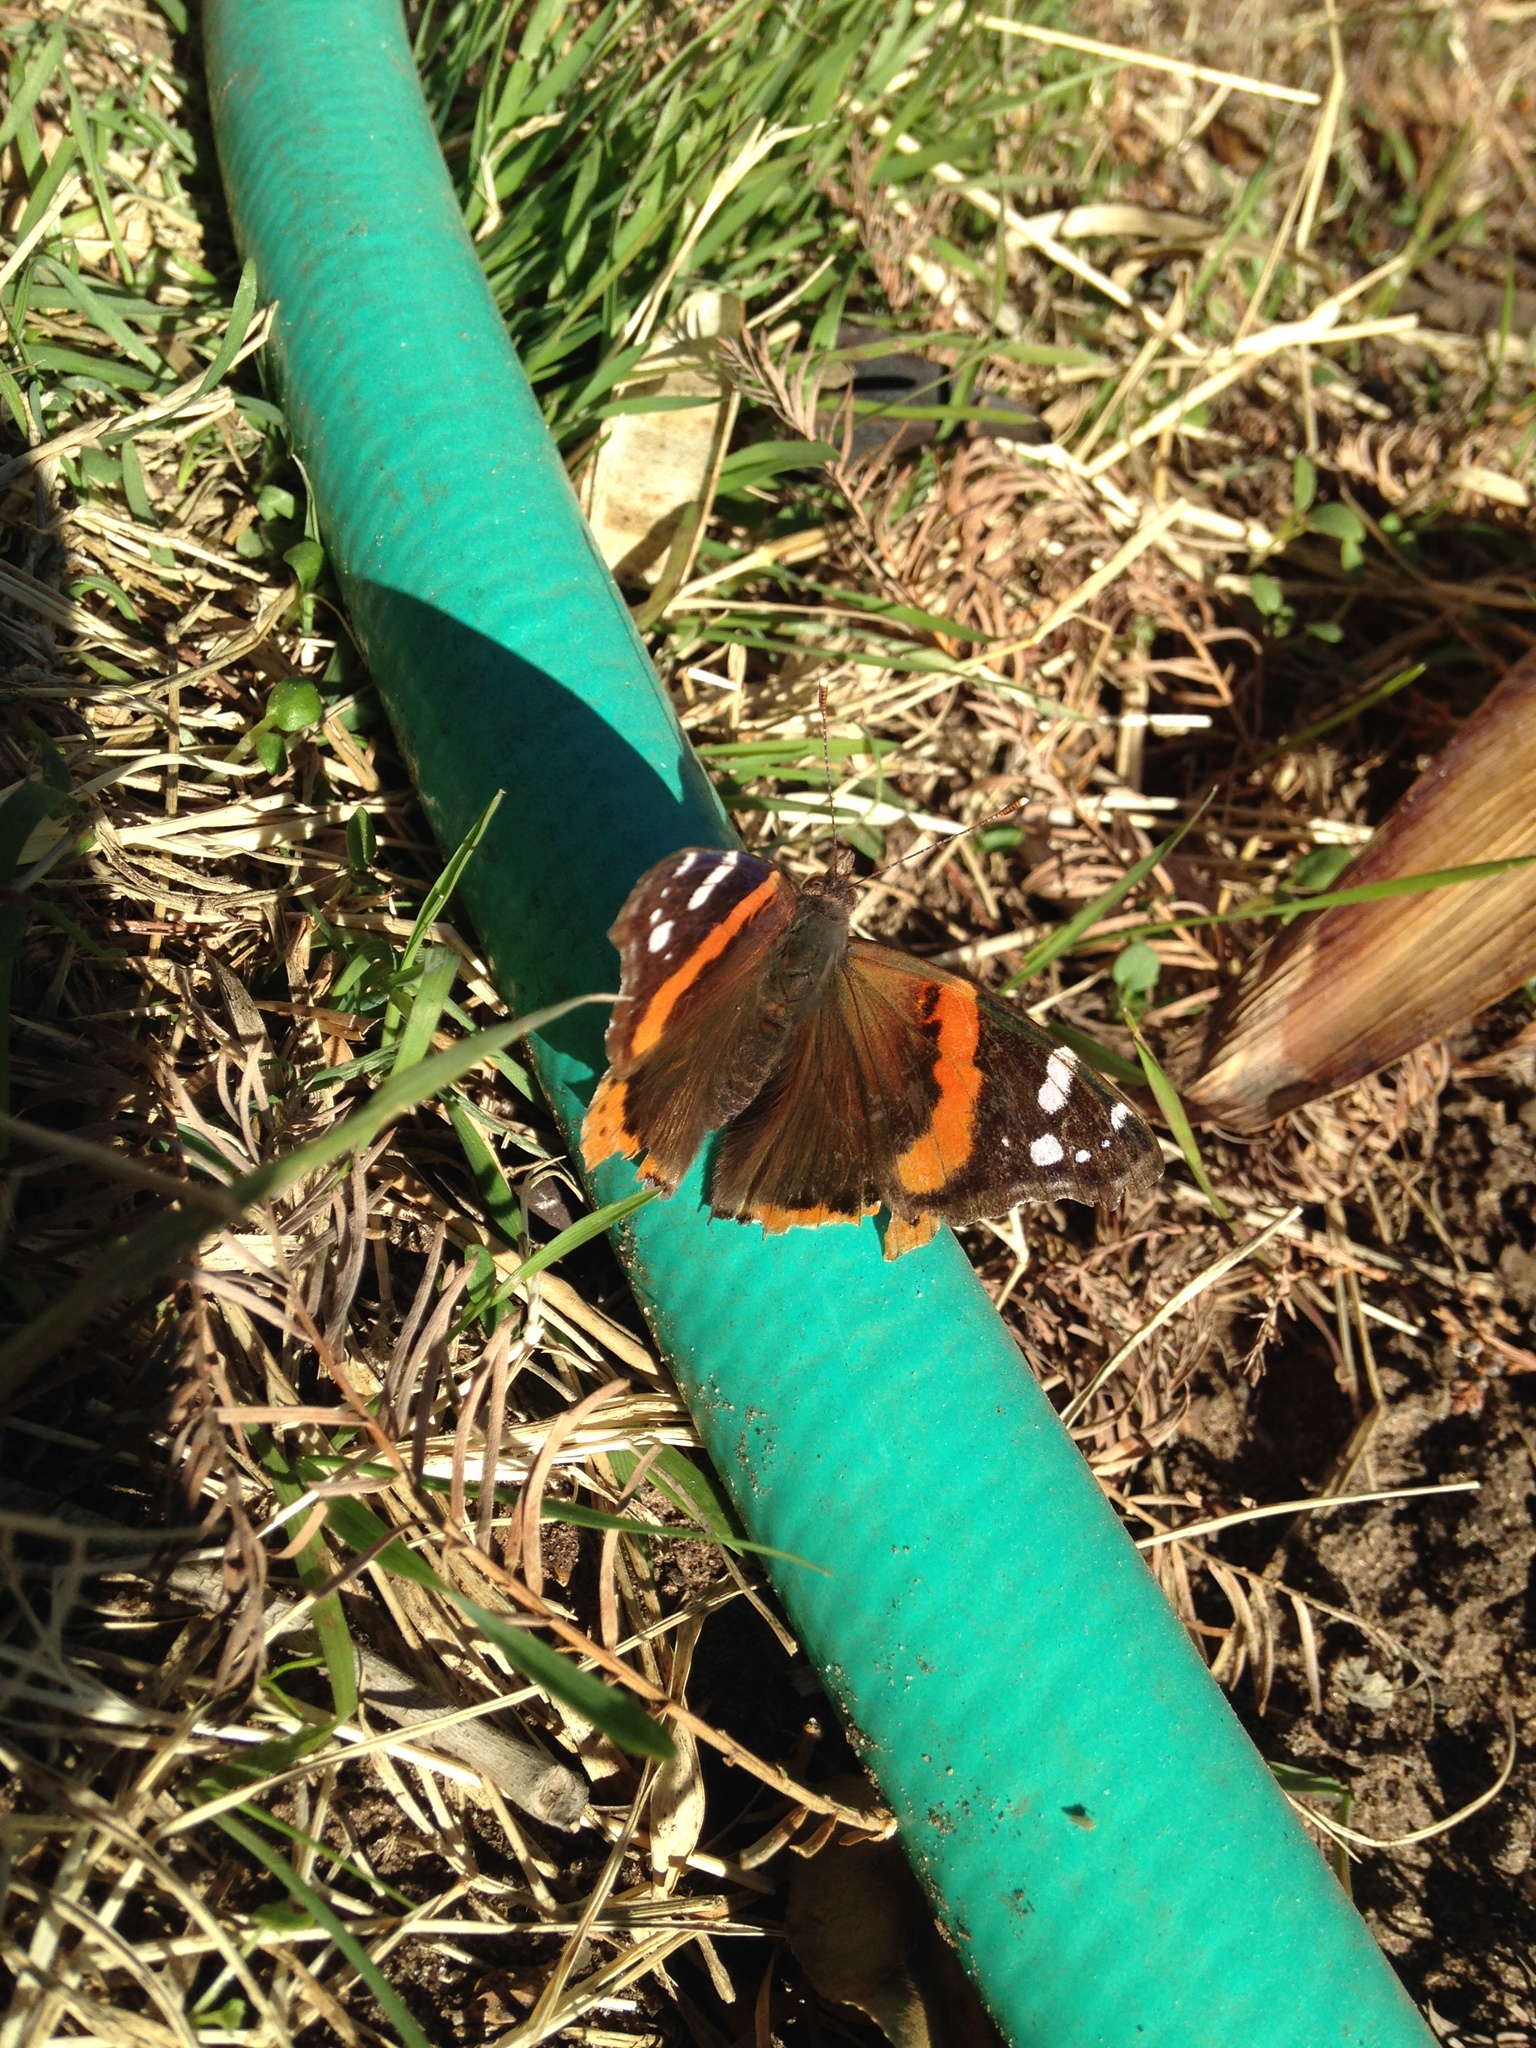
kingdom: Animalia
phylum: Arthropoda
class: Insecta
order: Lepidoptera
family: Nymphalidae
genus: Vanessa
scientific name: Vanessa atalanta
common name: Red admiral
